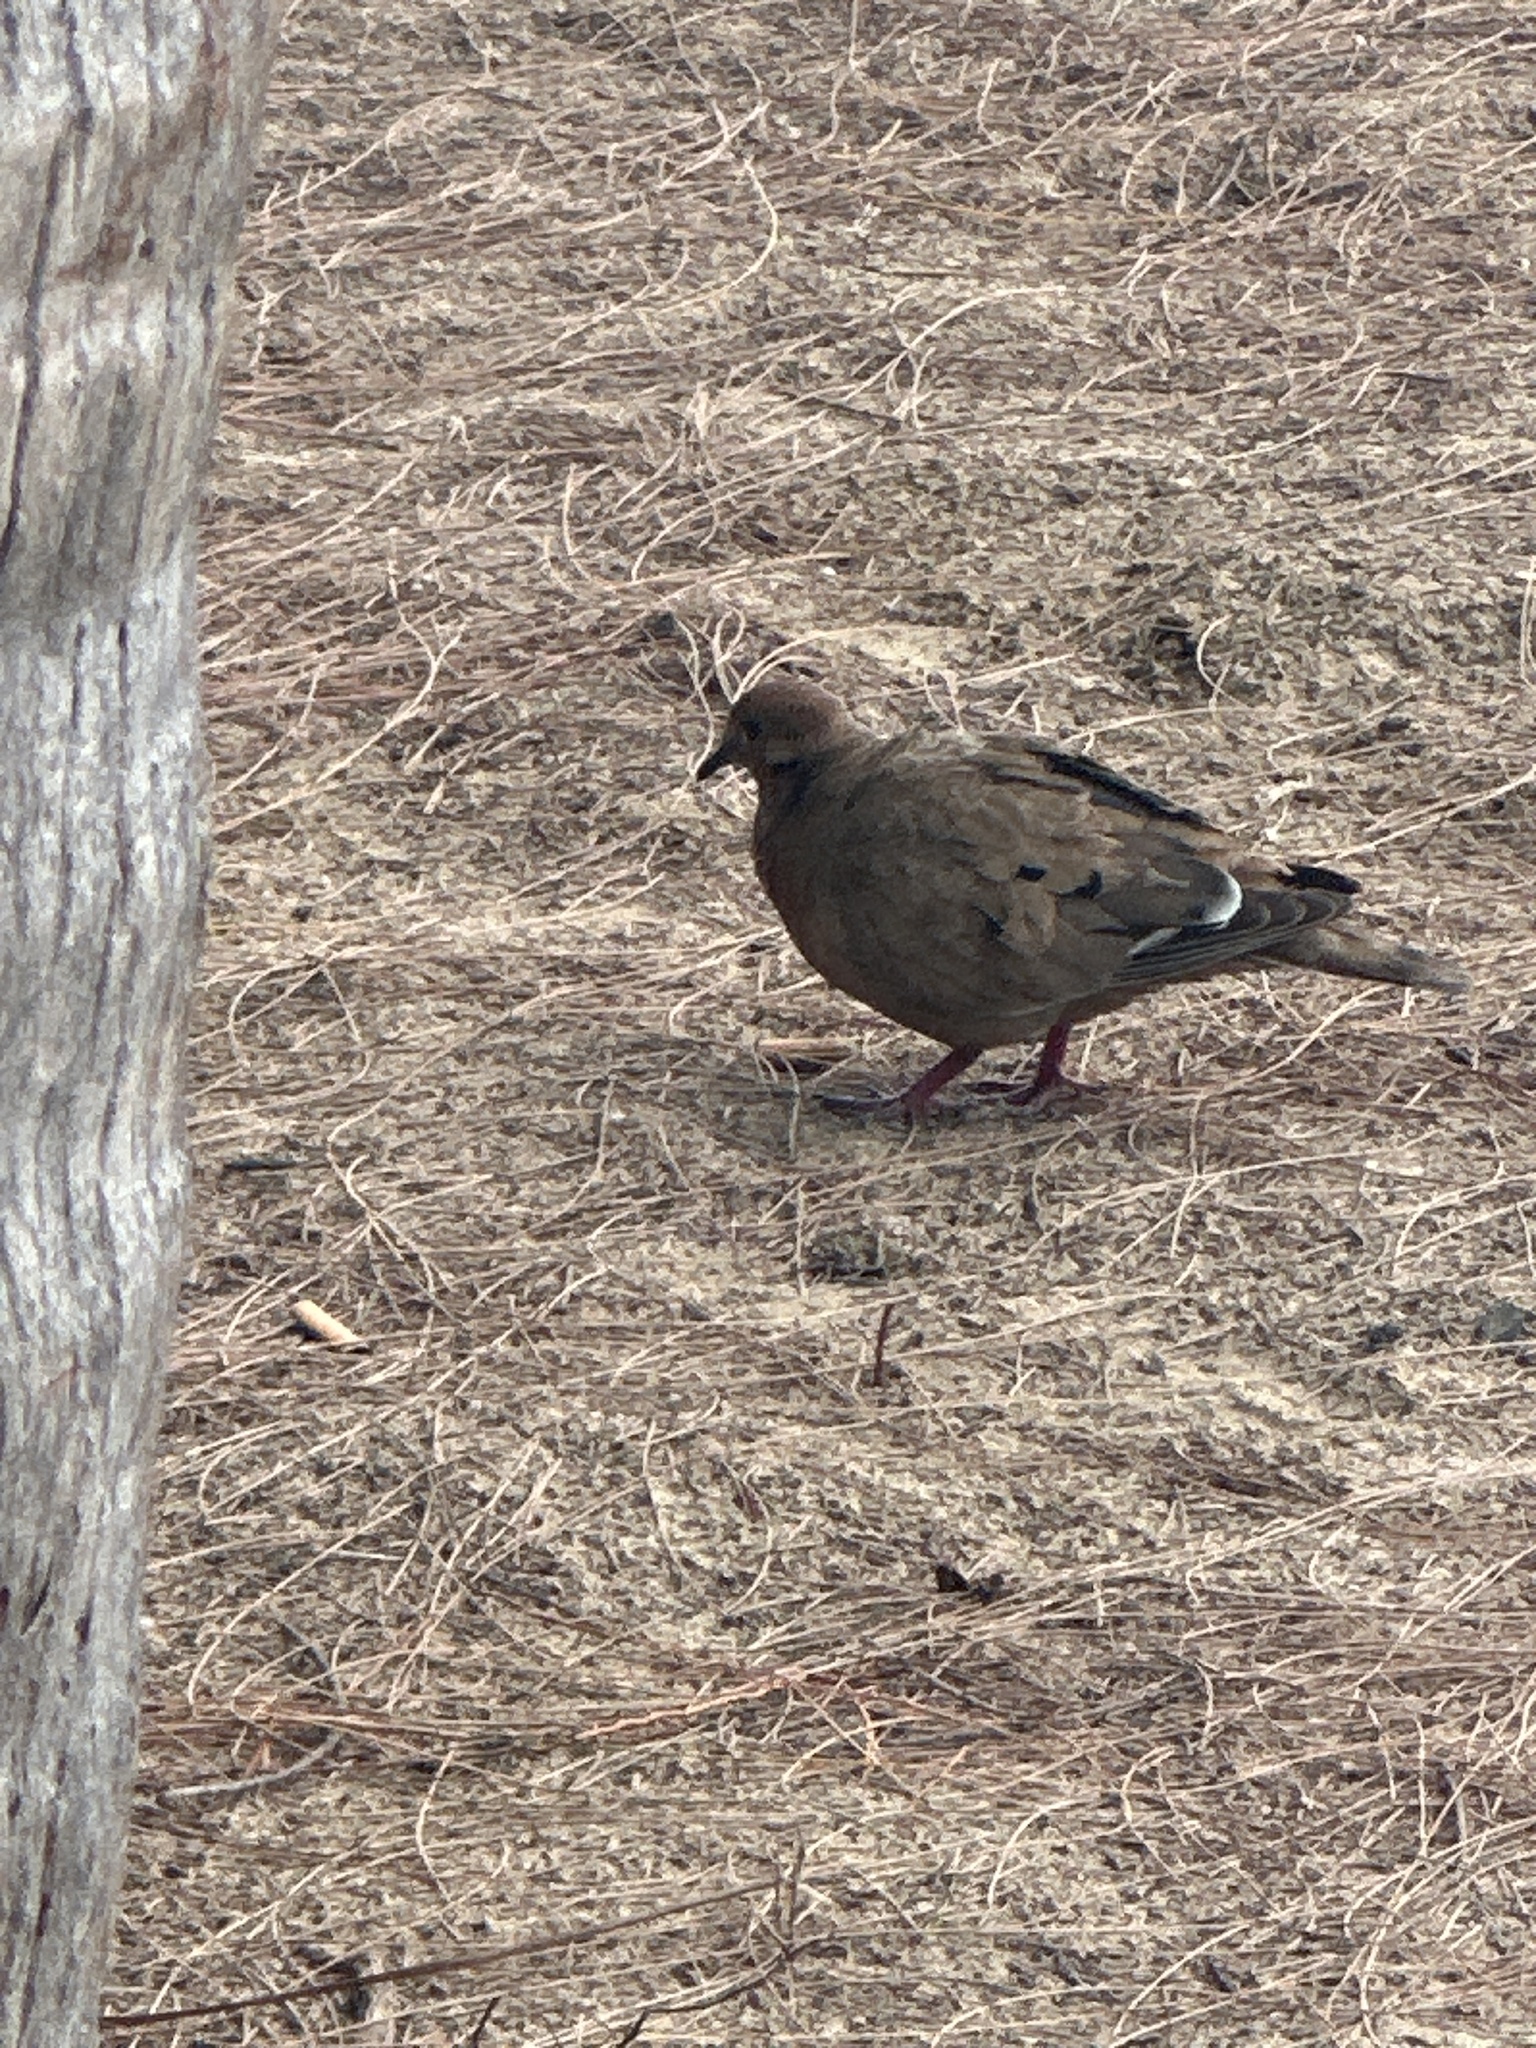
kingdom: Animalia
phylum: Chordata
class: Aves
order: Columbiformes
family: Columbidae
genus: Zenaida
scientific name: Zenaida aurita
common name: Zenaida dove
